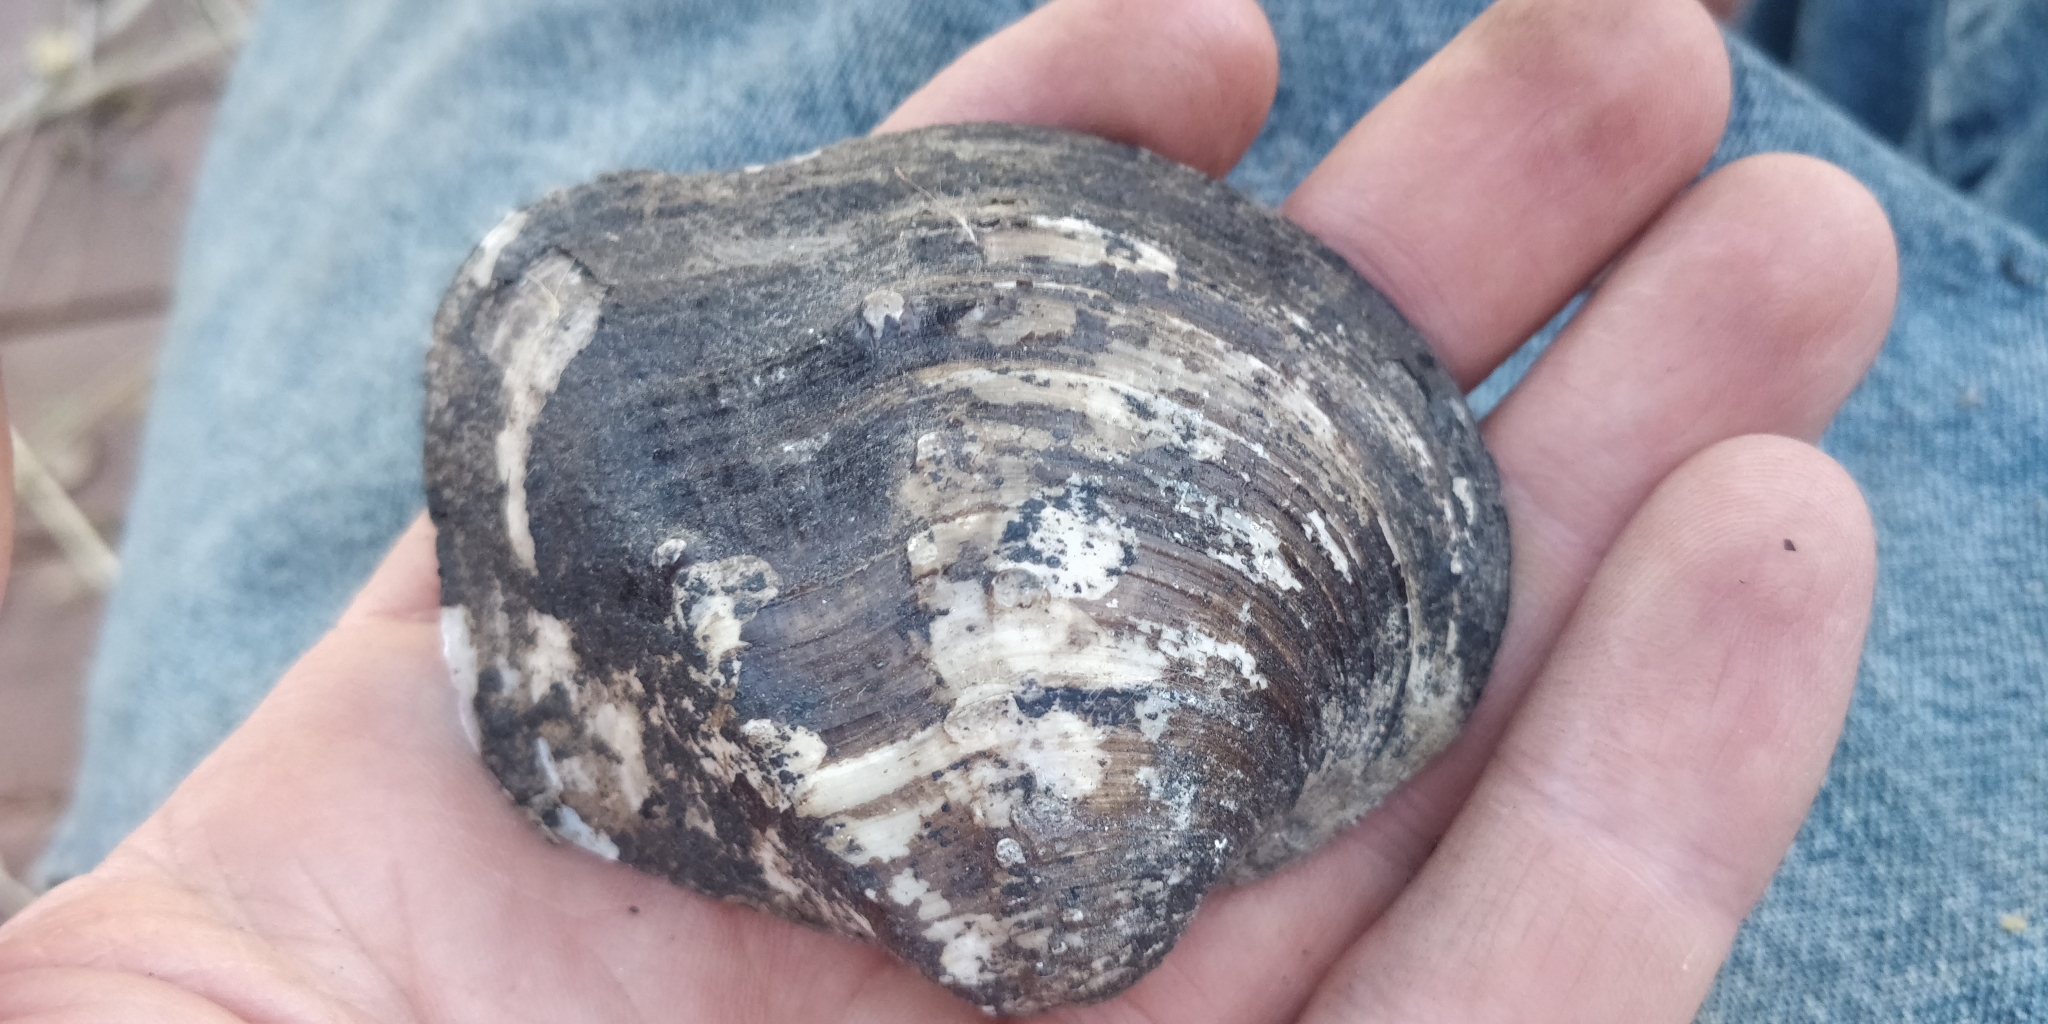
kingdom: Animalia
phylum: Mollusca
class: Bivalvia
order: Unionida
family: Unionidae
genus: Quadrula
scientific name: Quadrula quadrula
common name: Mapleleaf
